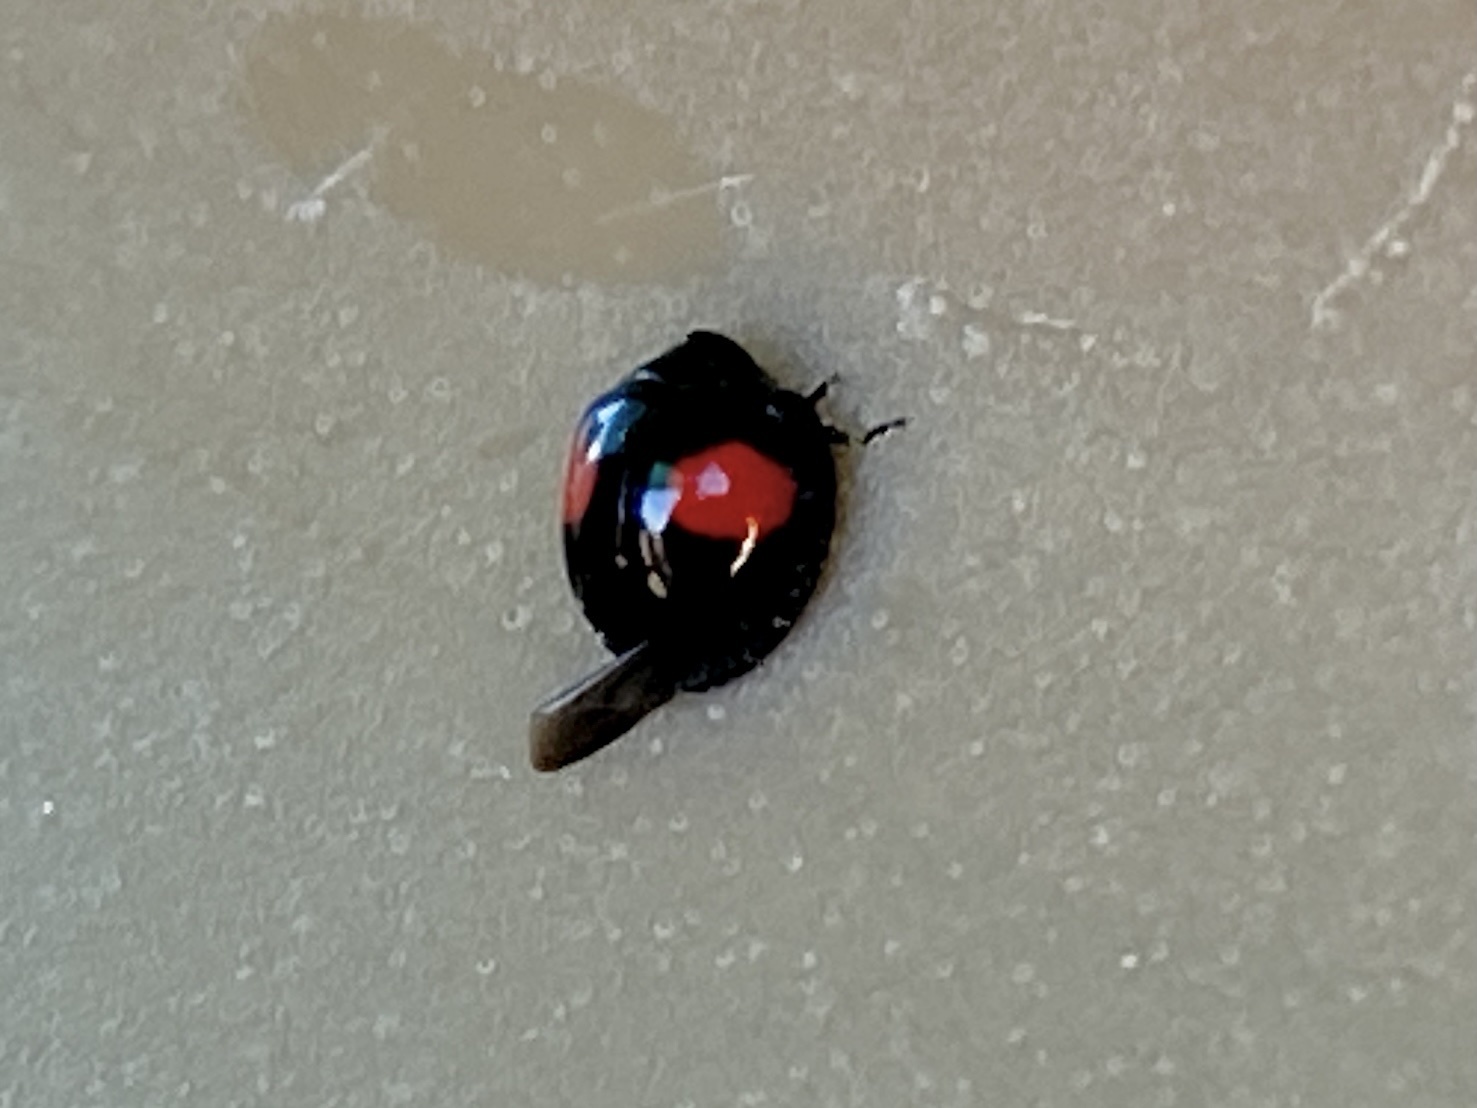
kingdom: Animalia
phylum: Arthropoda
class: Insecta
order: Coleoptera
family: Coccinellidae
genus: Chilocorus
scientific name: Chilocorus cacti
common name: Cactus lady beetle
